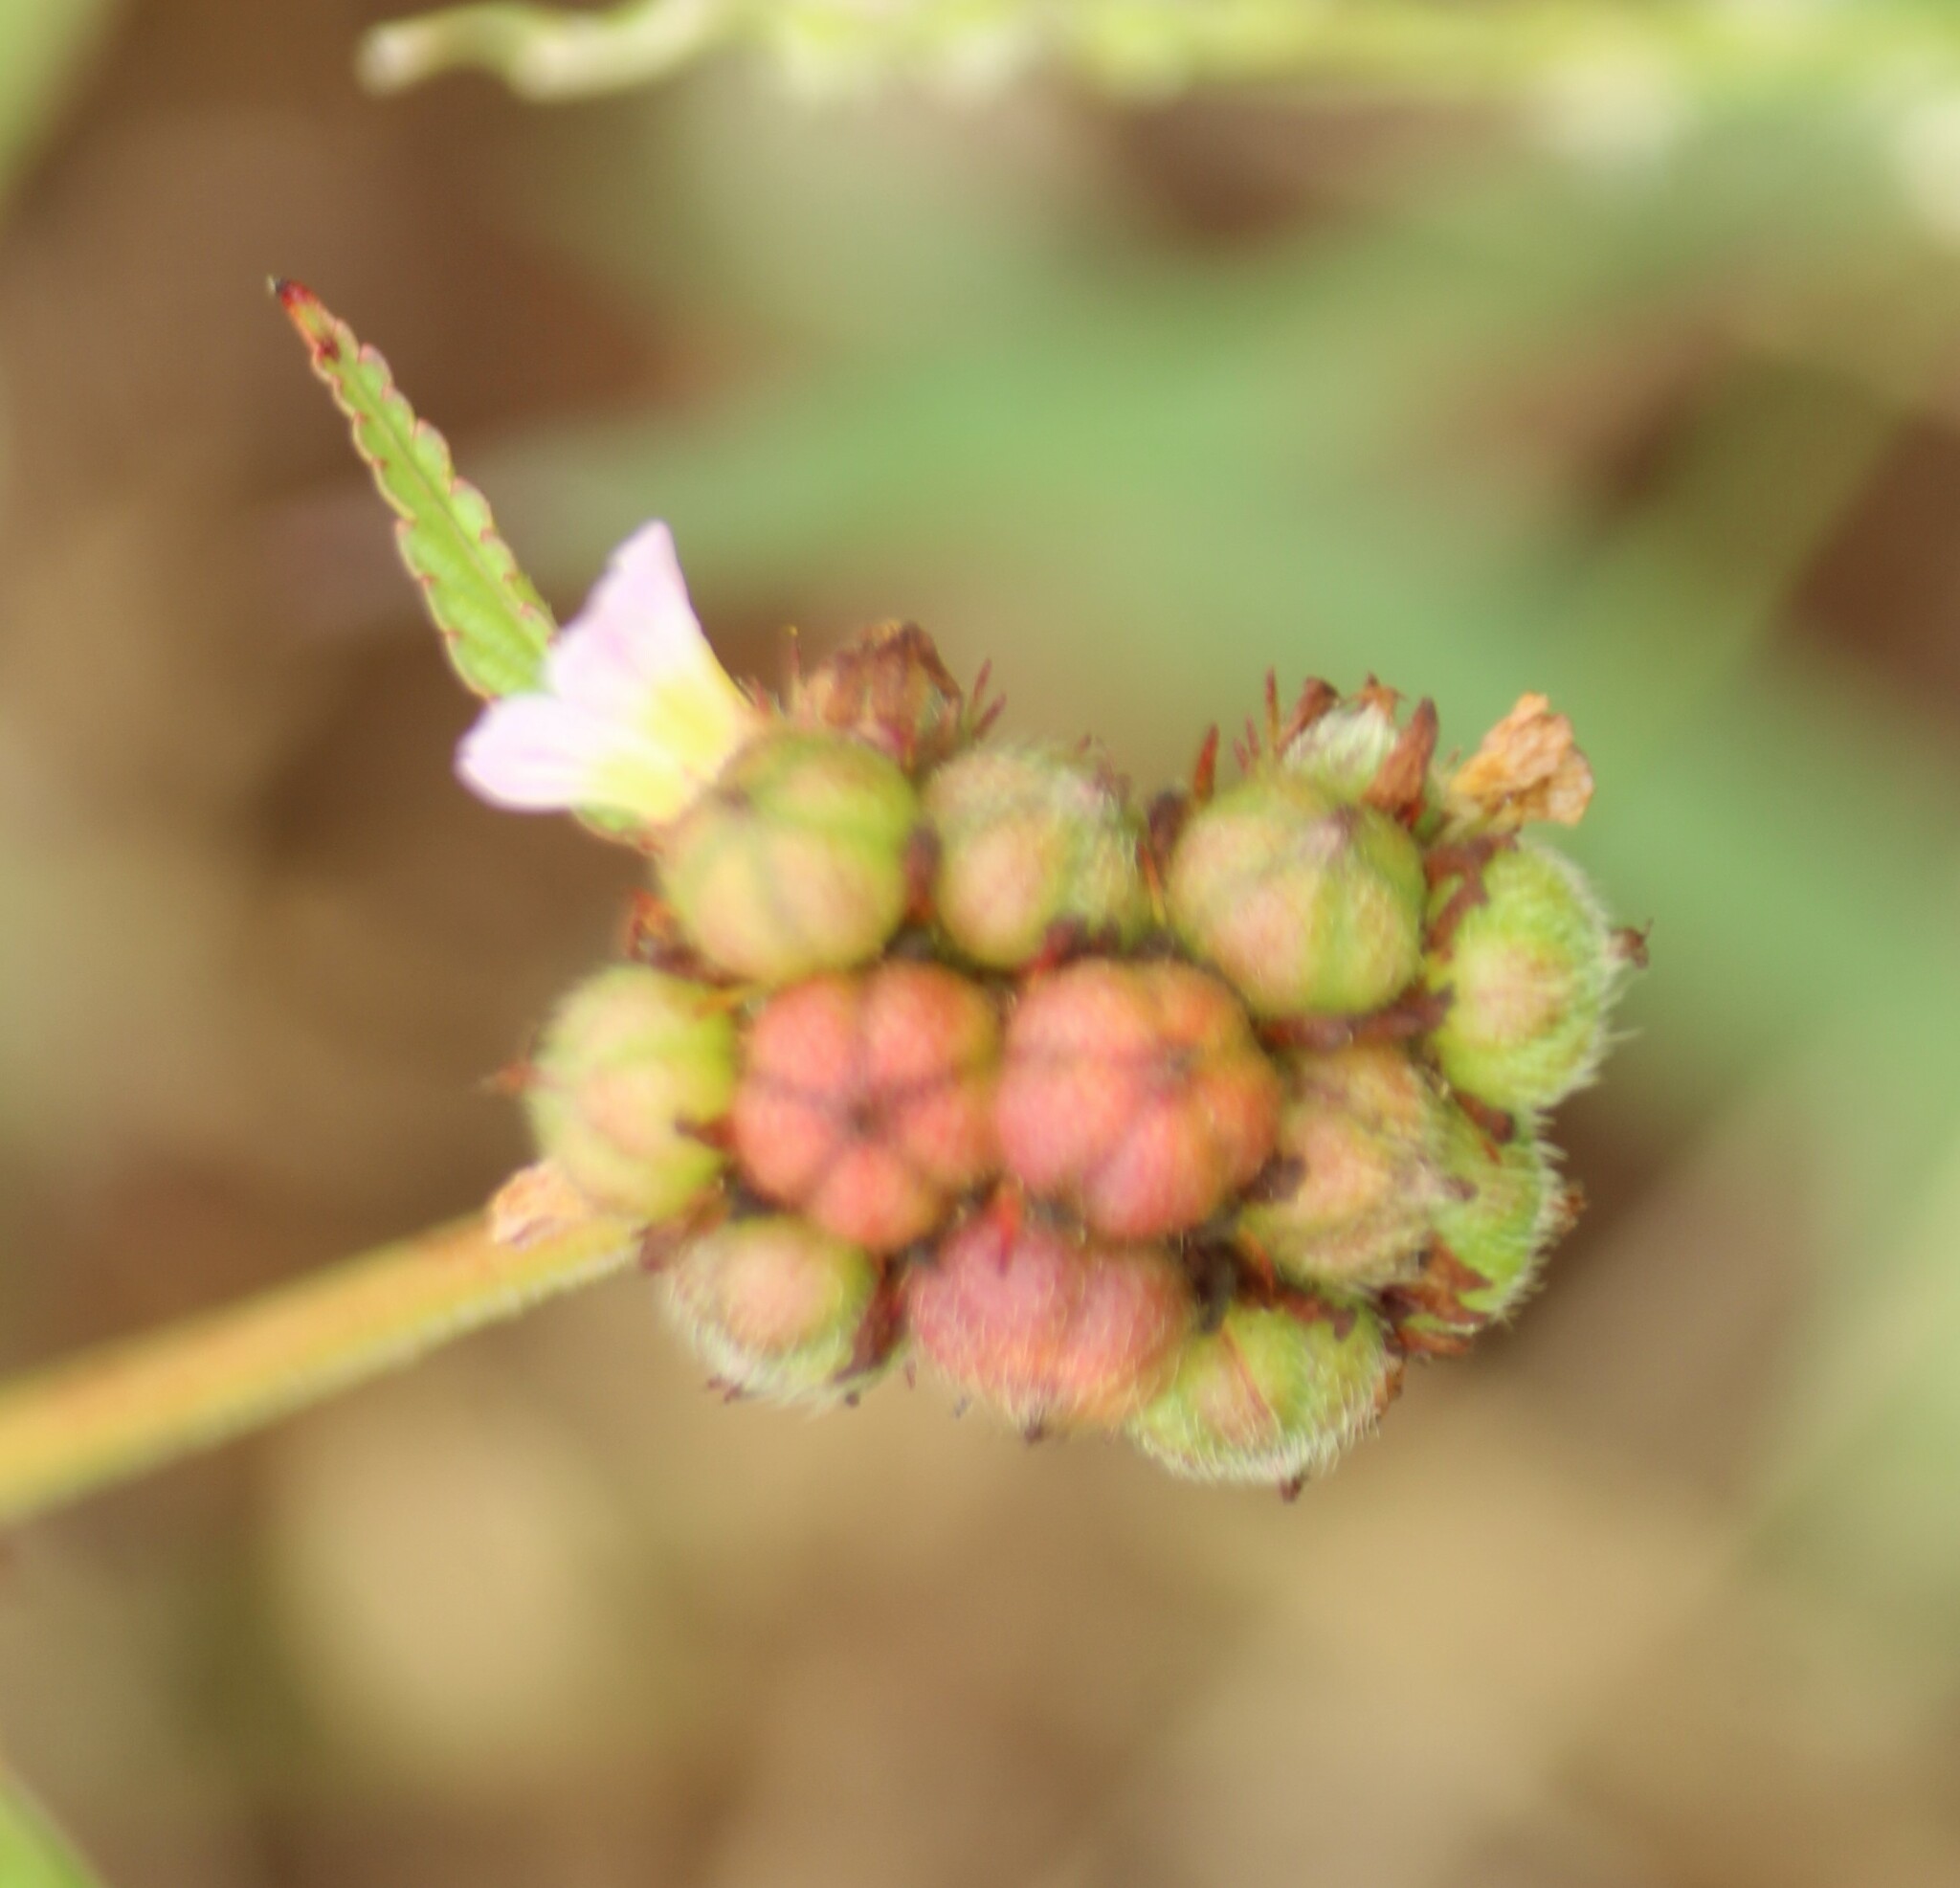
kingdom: Plantae
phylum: Tracheophyta
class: Magnoliopsida
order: Malvales
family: Malvaceae
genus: Melochia
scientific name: Melochia corchorifolia
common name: Chocolateweed
